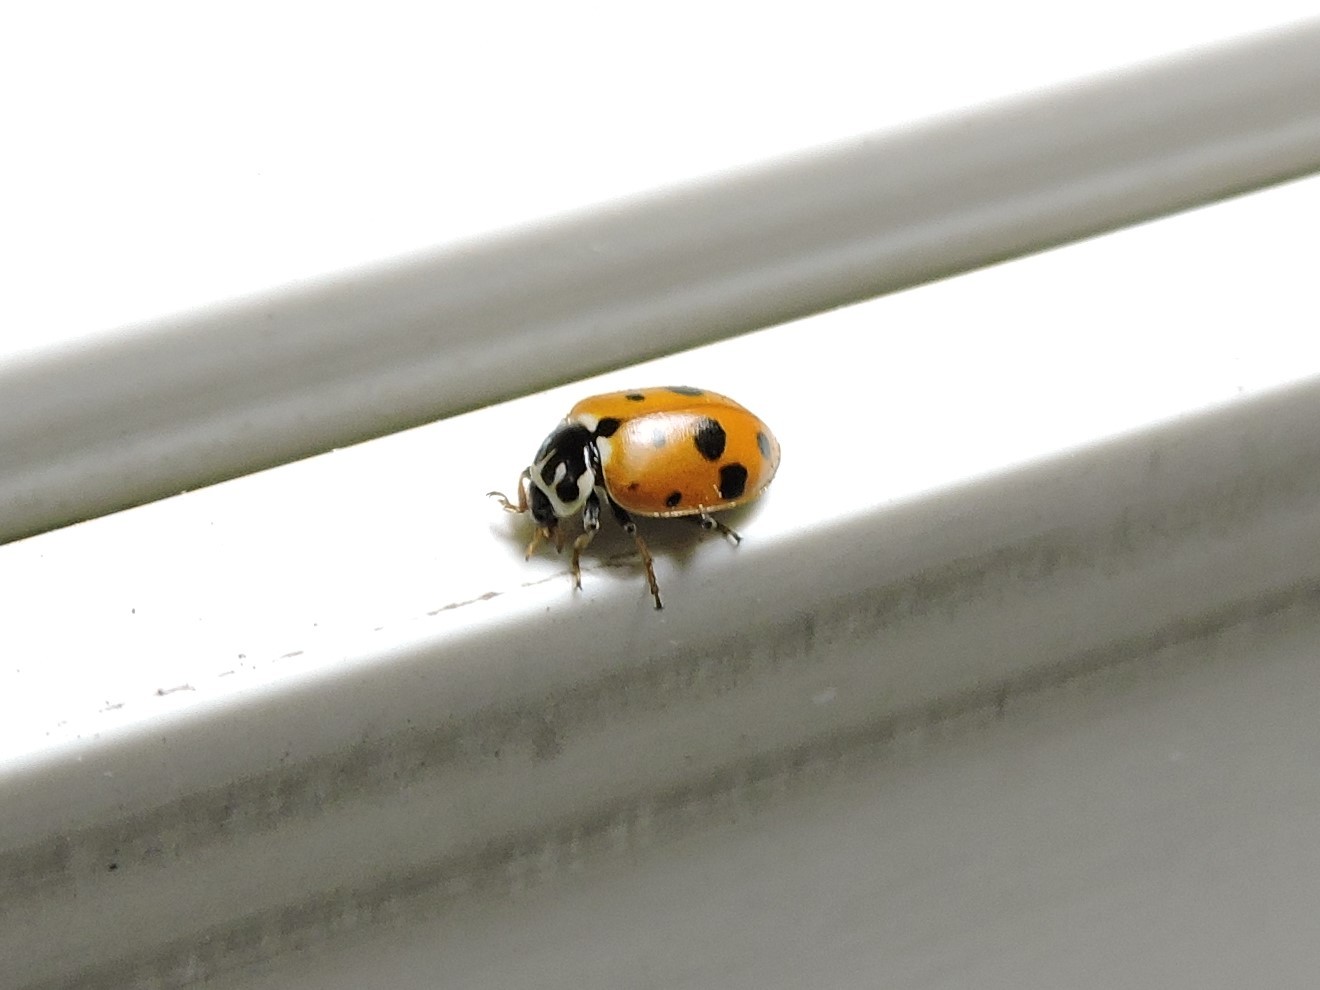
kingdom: Animalia
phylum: Arthropoda
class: Insecta
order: Coleoptera
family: Coccinellidae
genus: Hippodamia
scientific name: Hippodamia variegata
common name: Ladybird beetle
